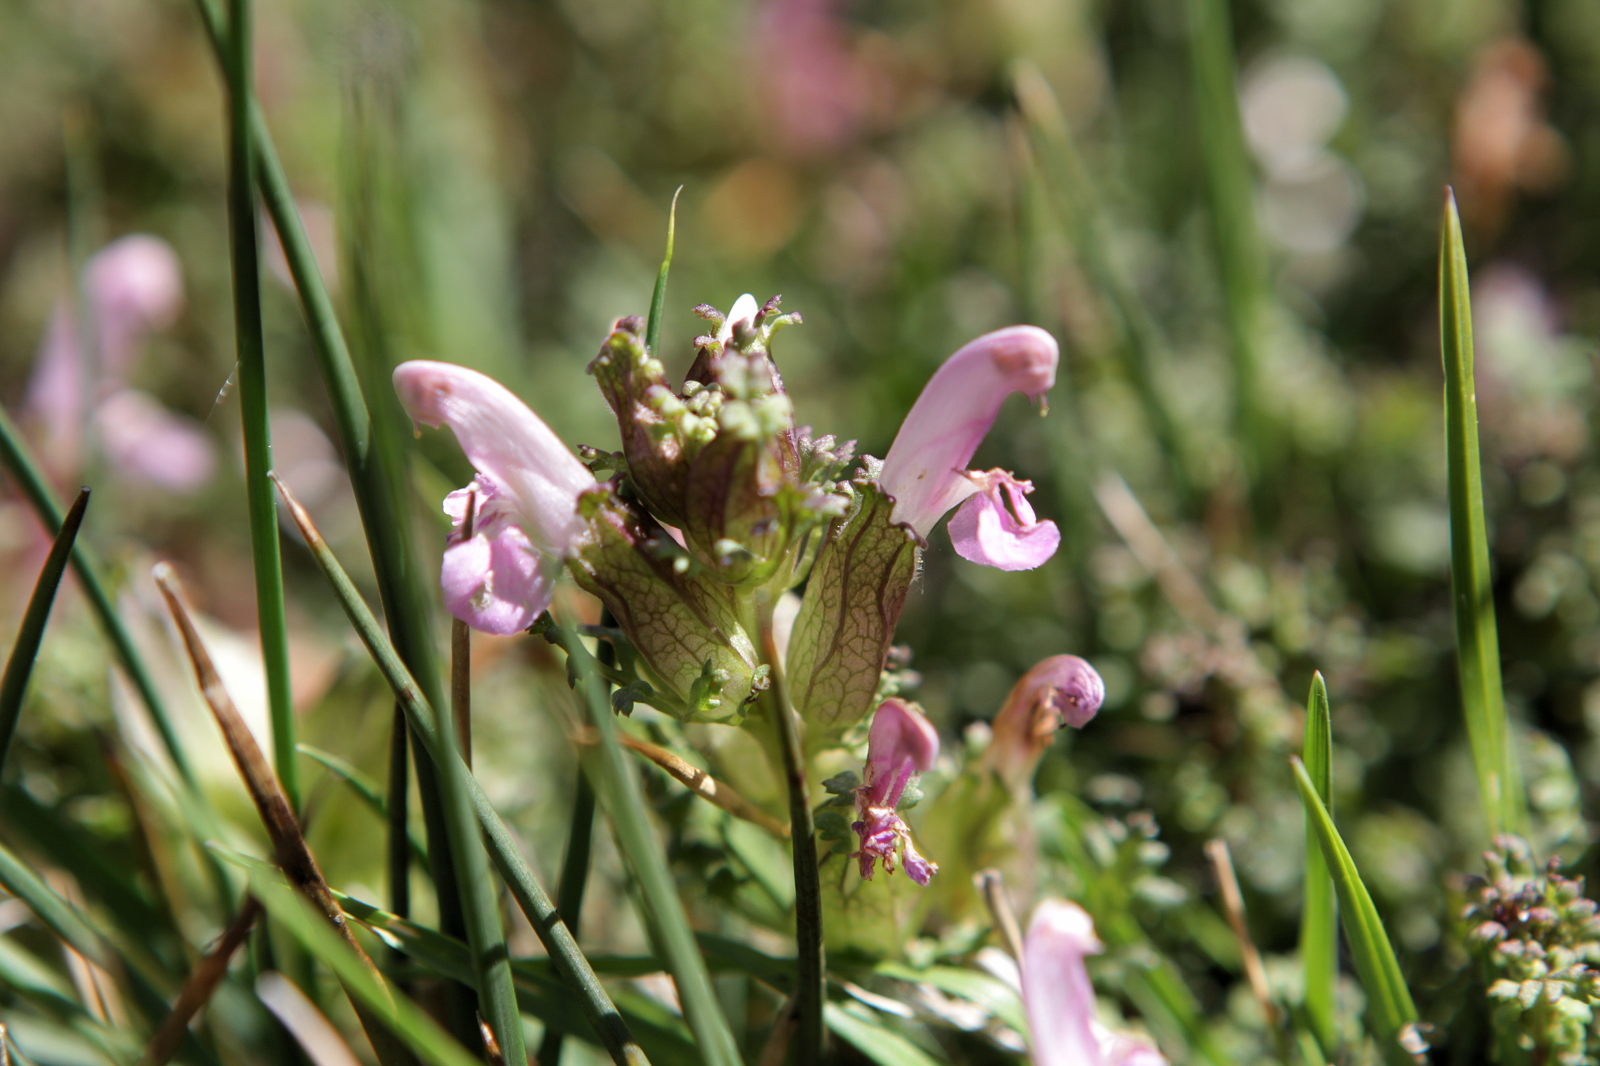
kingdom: Plantae
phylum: Tracheophyta
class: Magnoliopsida
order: Lamiales
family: Orobanchaceae
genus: Pedicularis
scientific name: Pedicularis sylvatica
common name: Lousewort
